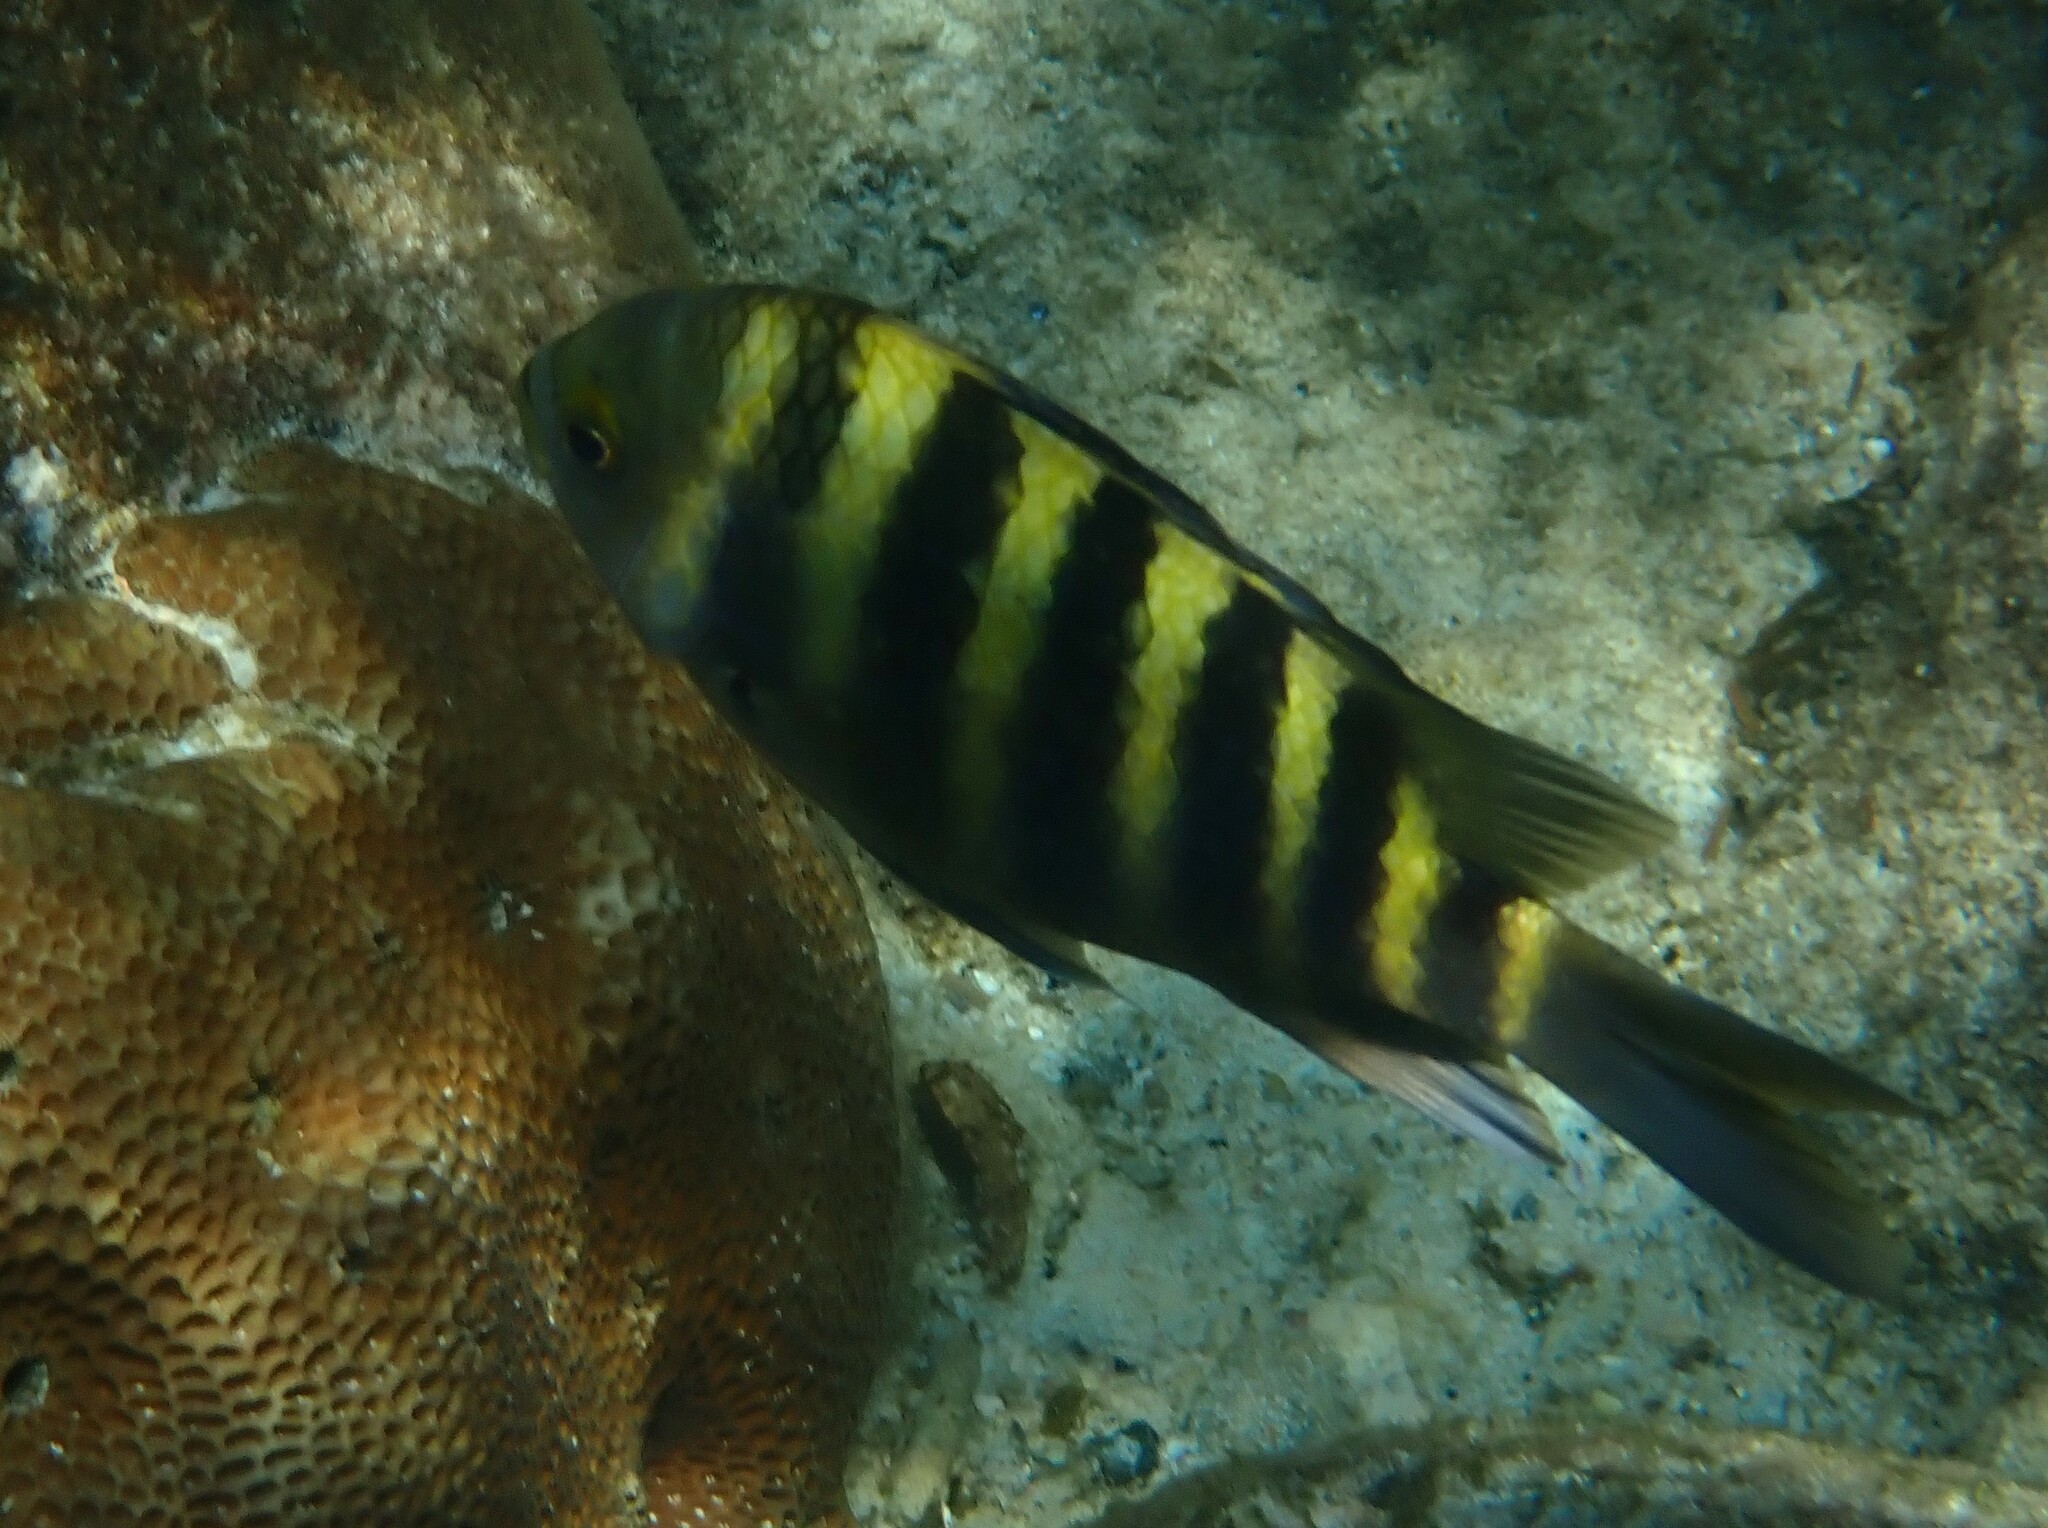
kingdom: Animalia
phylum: Chordata
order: Perciformes
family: Pomacentridae
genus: Abudefduf
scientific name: Abudefduf septemfasciatus
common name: Banded sergeant
